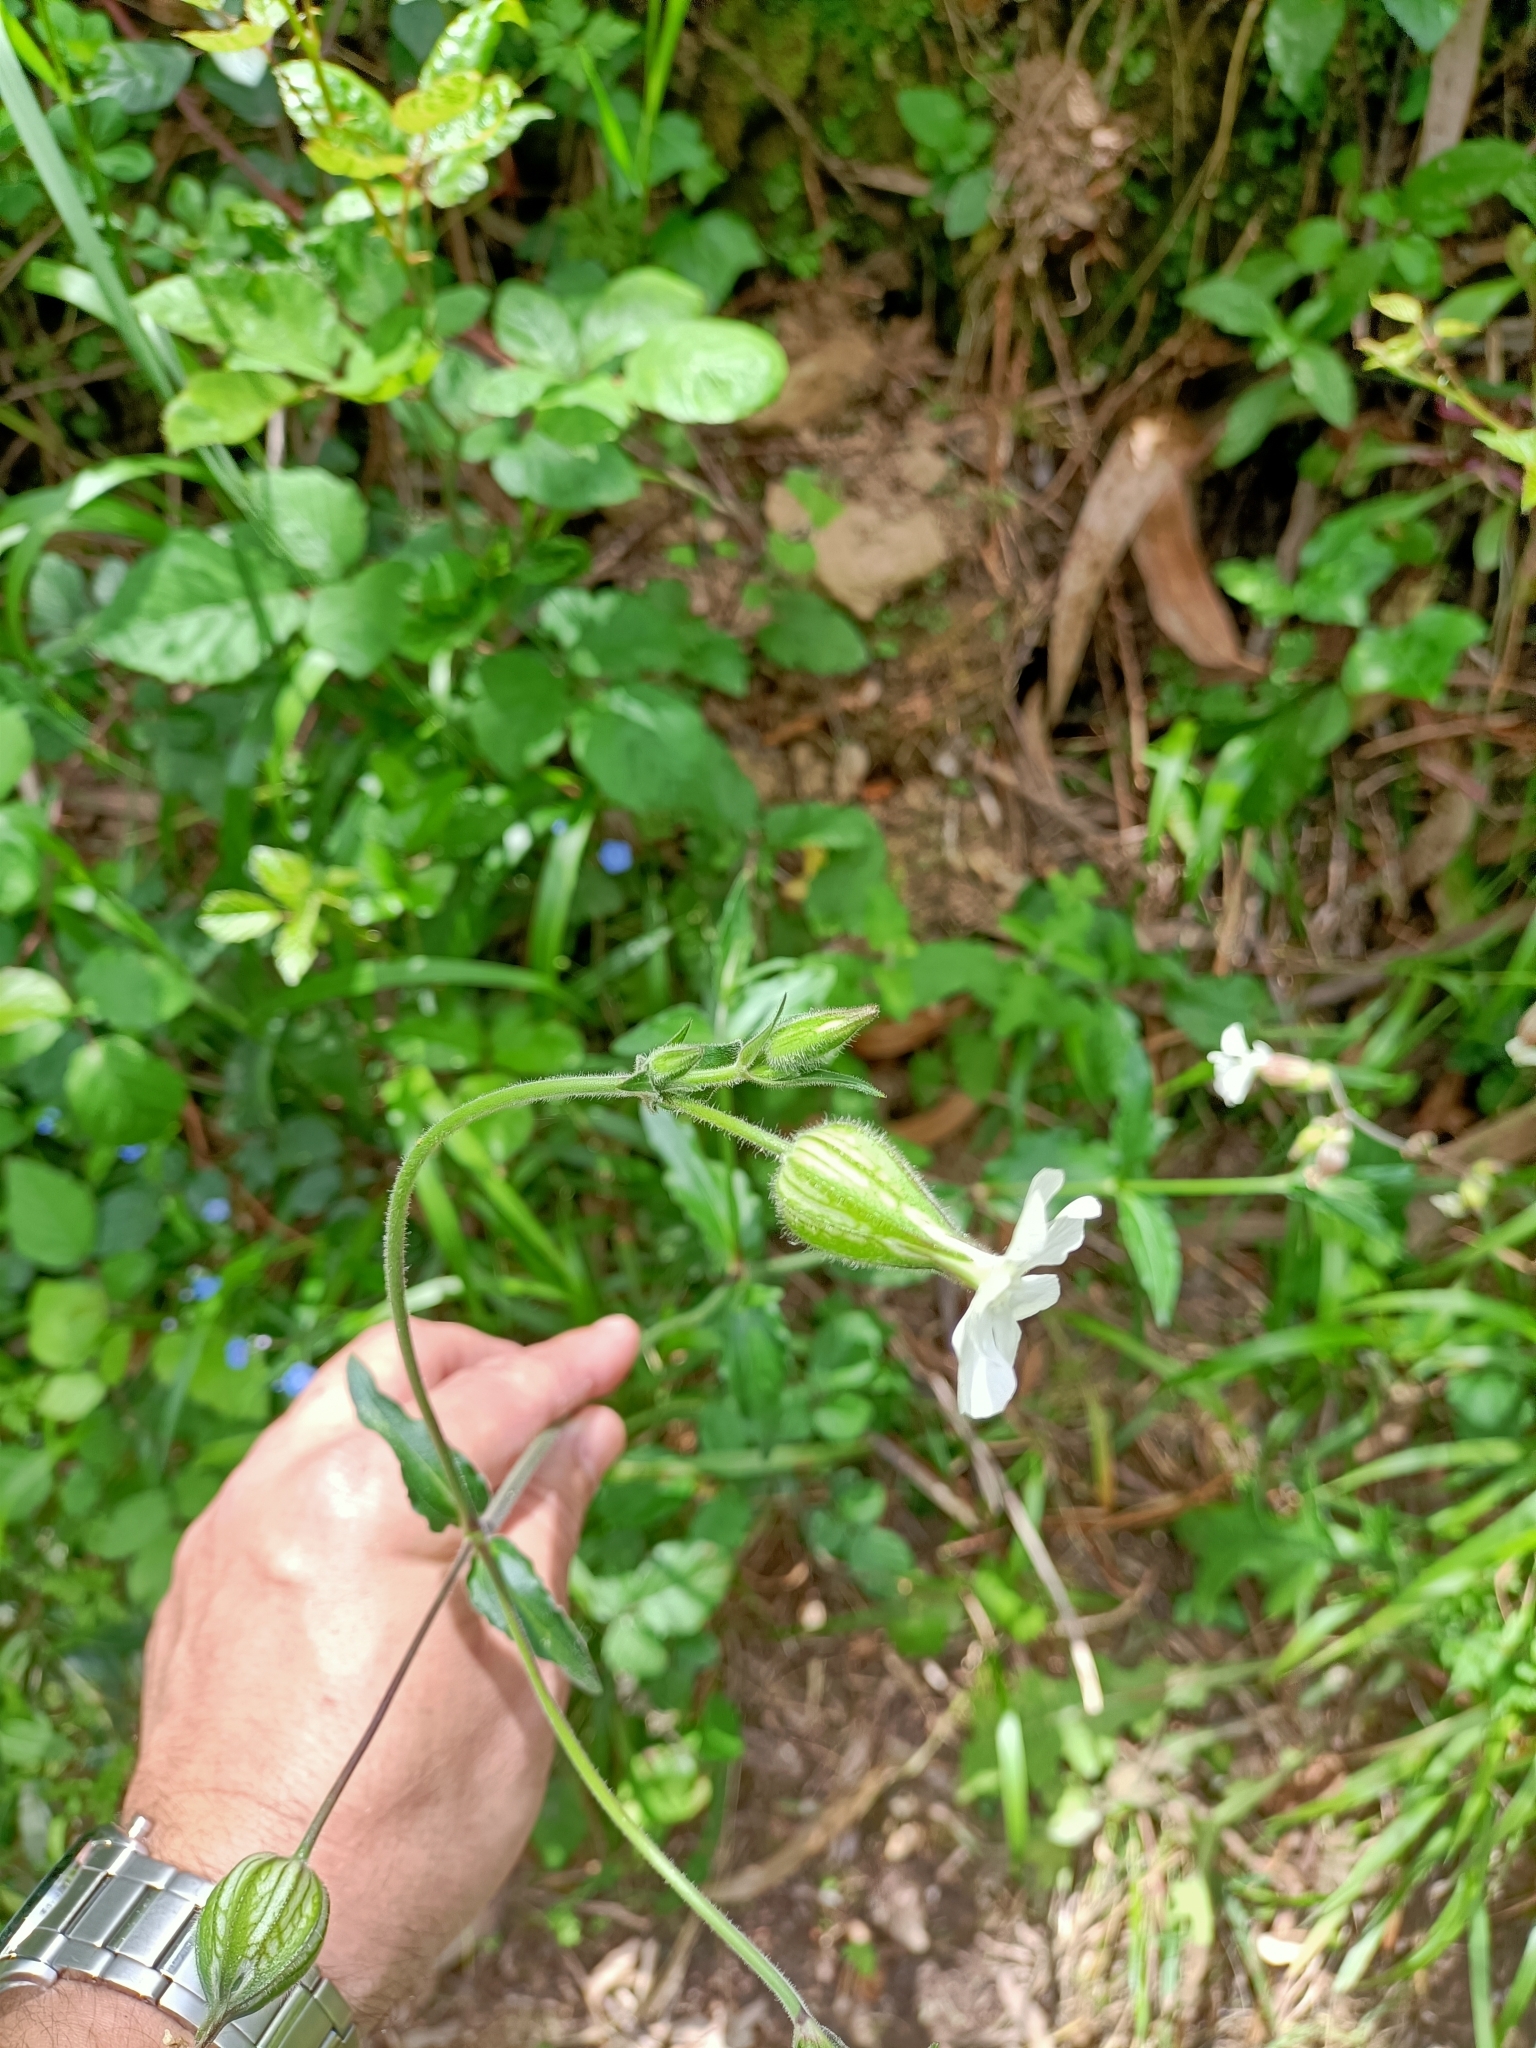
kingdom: Plantae
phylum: Tracheophyta
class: Magnoliopsida
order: Caryophyllales
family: Caryophyllaceae
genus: Silene
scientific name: Silene latifolia
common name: White campion
